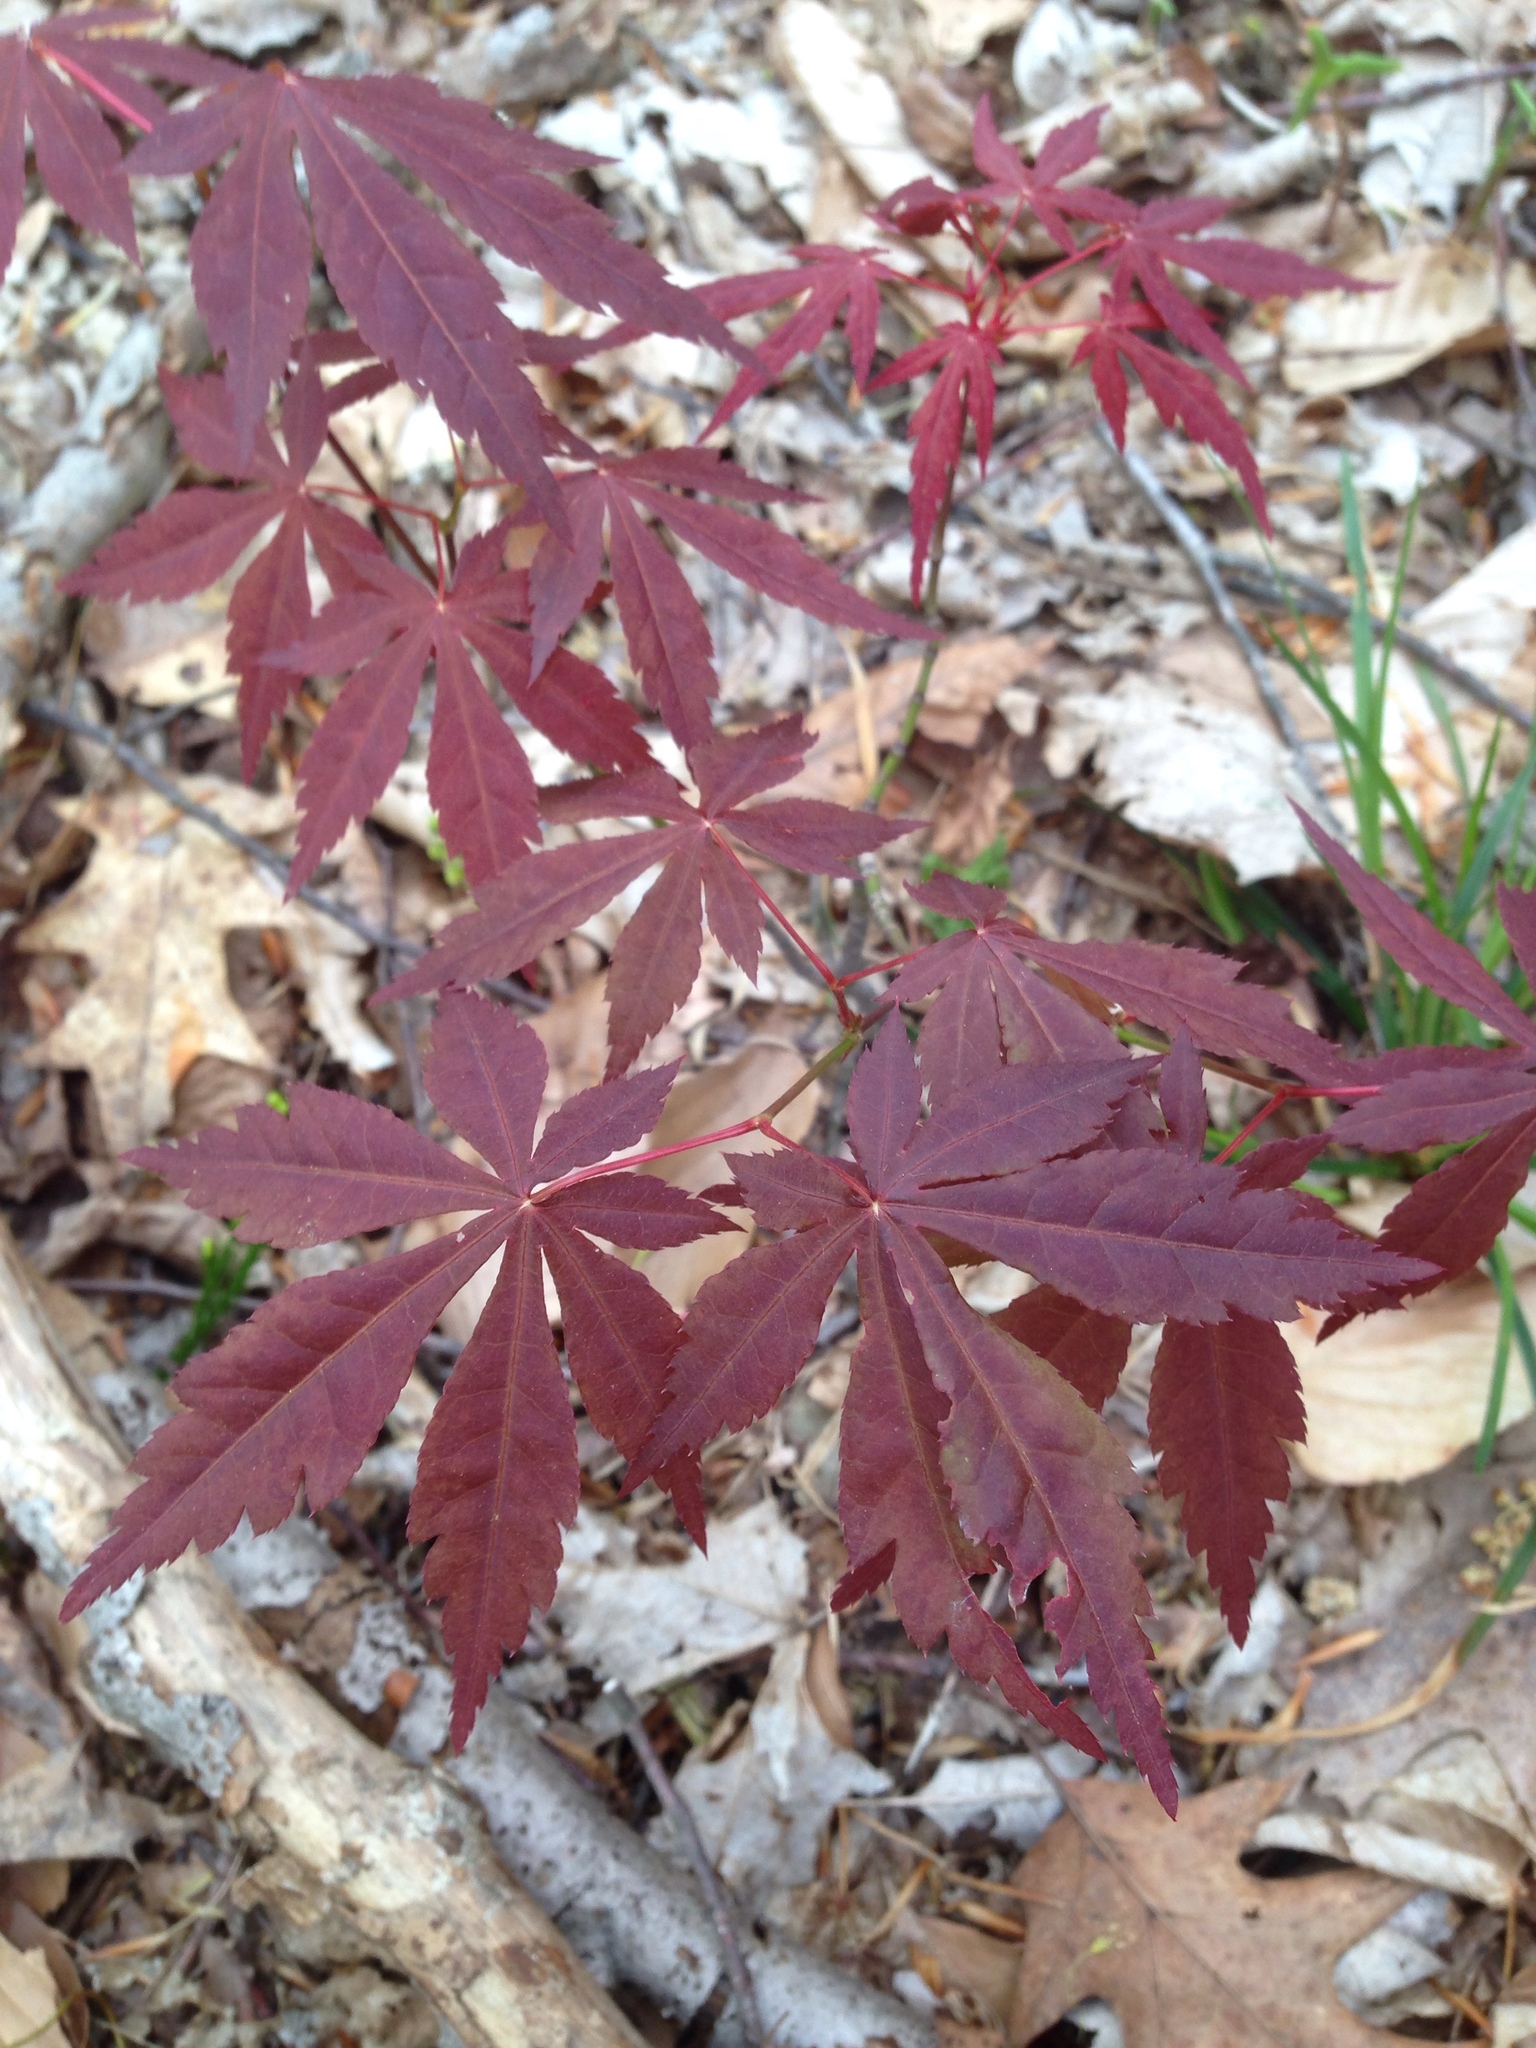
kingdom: Plantae
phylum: Tracheophyta
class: Magnoliopsida
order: Sapindales
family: Sapindaceae
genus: Acer
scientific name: Acer palmatum
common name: Japanese maple
